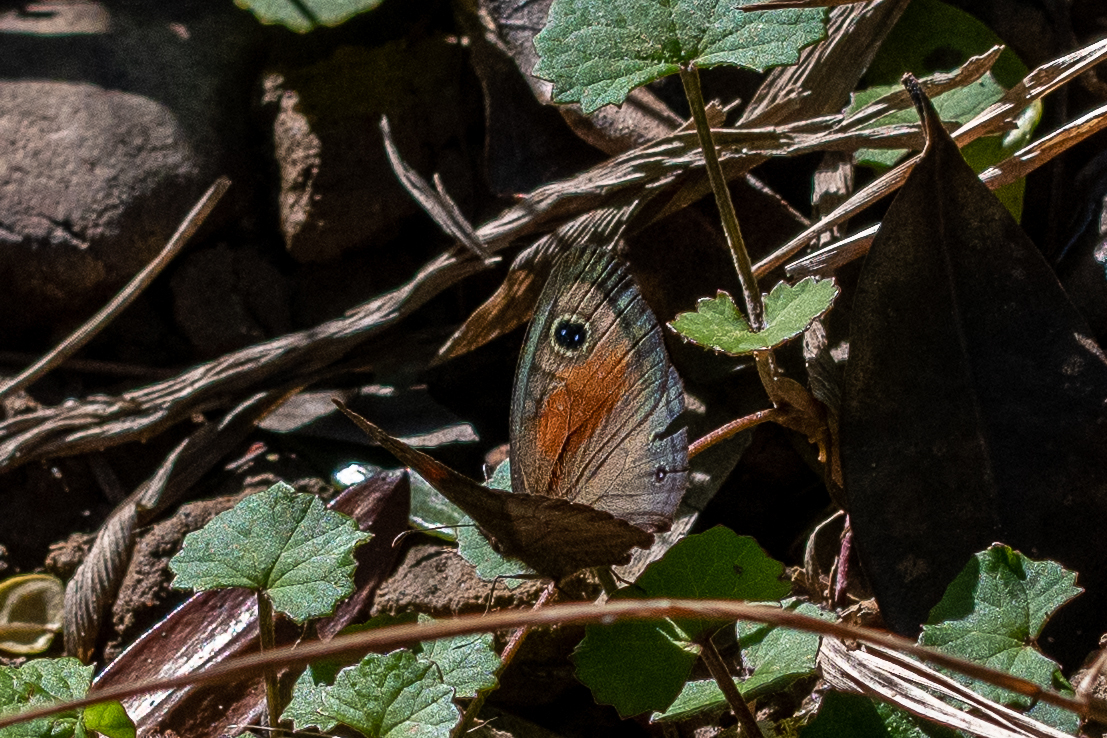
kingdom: Animalia
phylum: Arthropoda
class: Insecta
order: Lepidoptera
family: Nymphalidae
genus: Cassionympha
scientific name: Cassionympha cassius
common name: Rainforest brown
